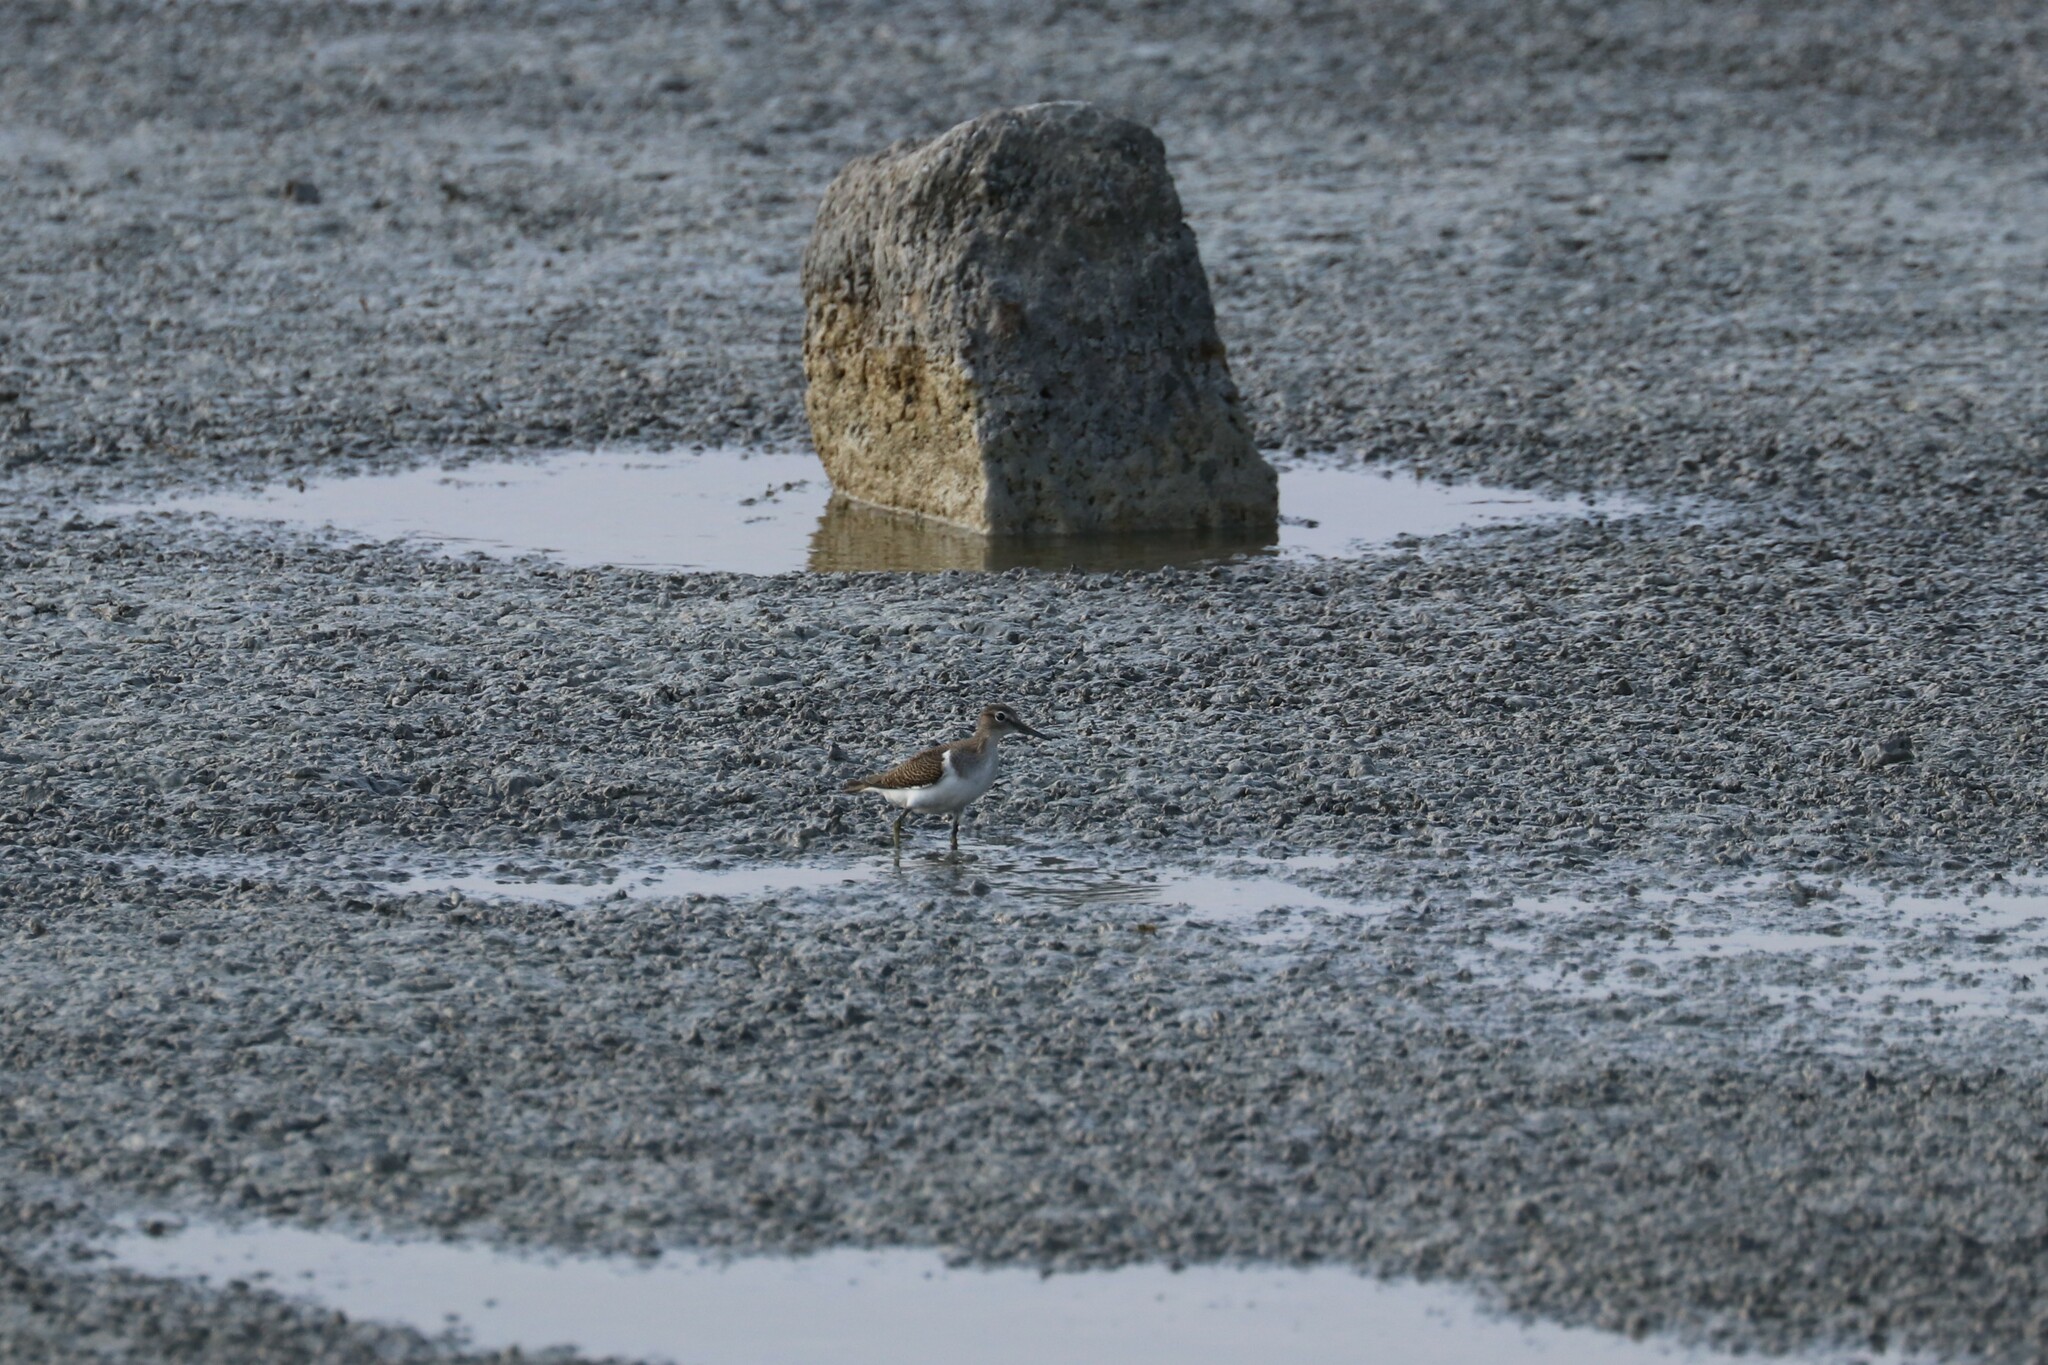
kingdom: Animalia
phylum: Chordata
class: Aves
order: Charadriiformes
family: Scolopacidae
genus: Actitis
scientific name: Actitis hypoleucos
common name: Common sandpiper
